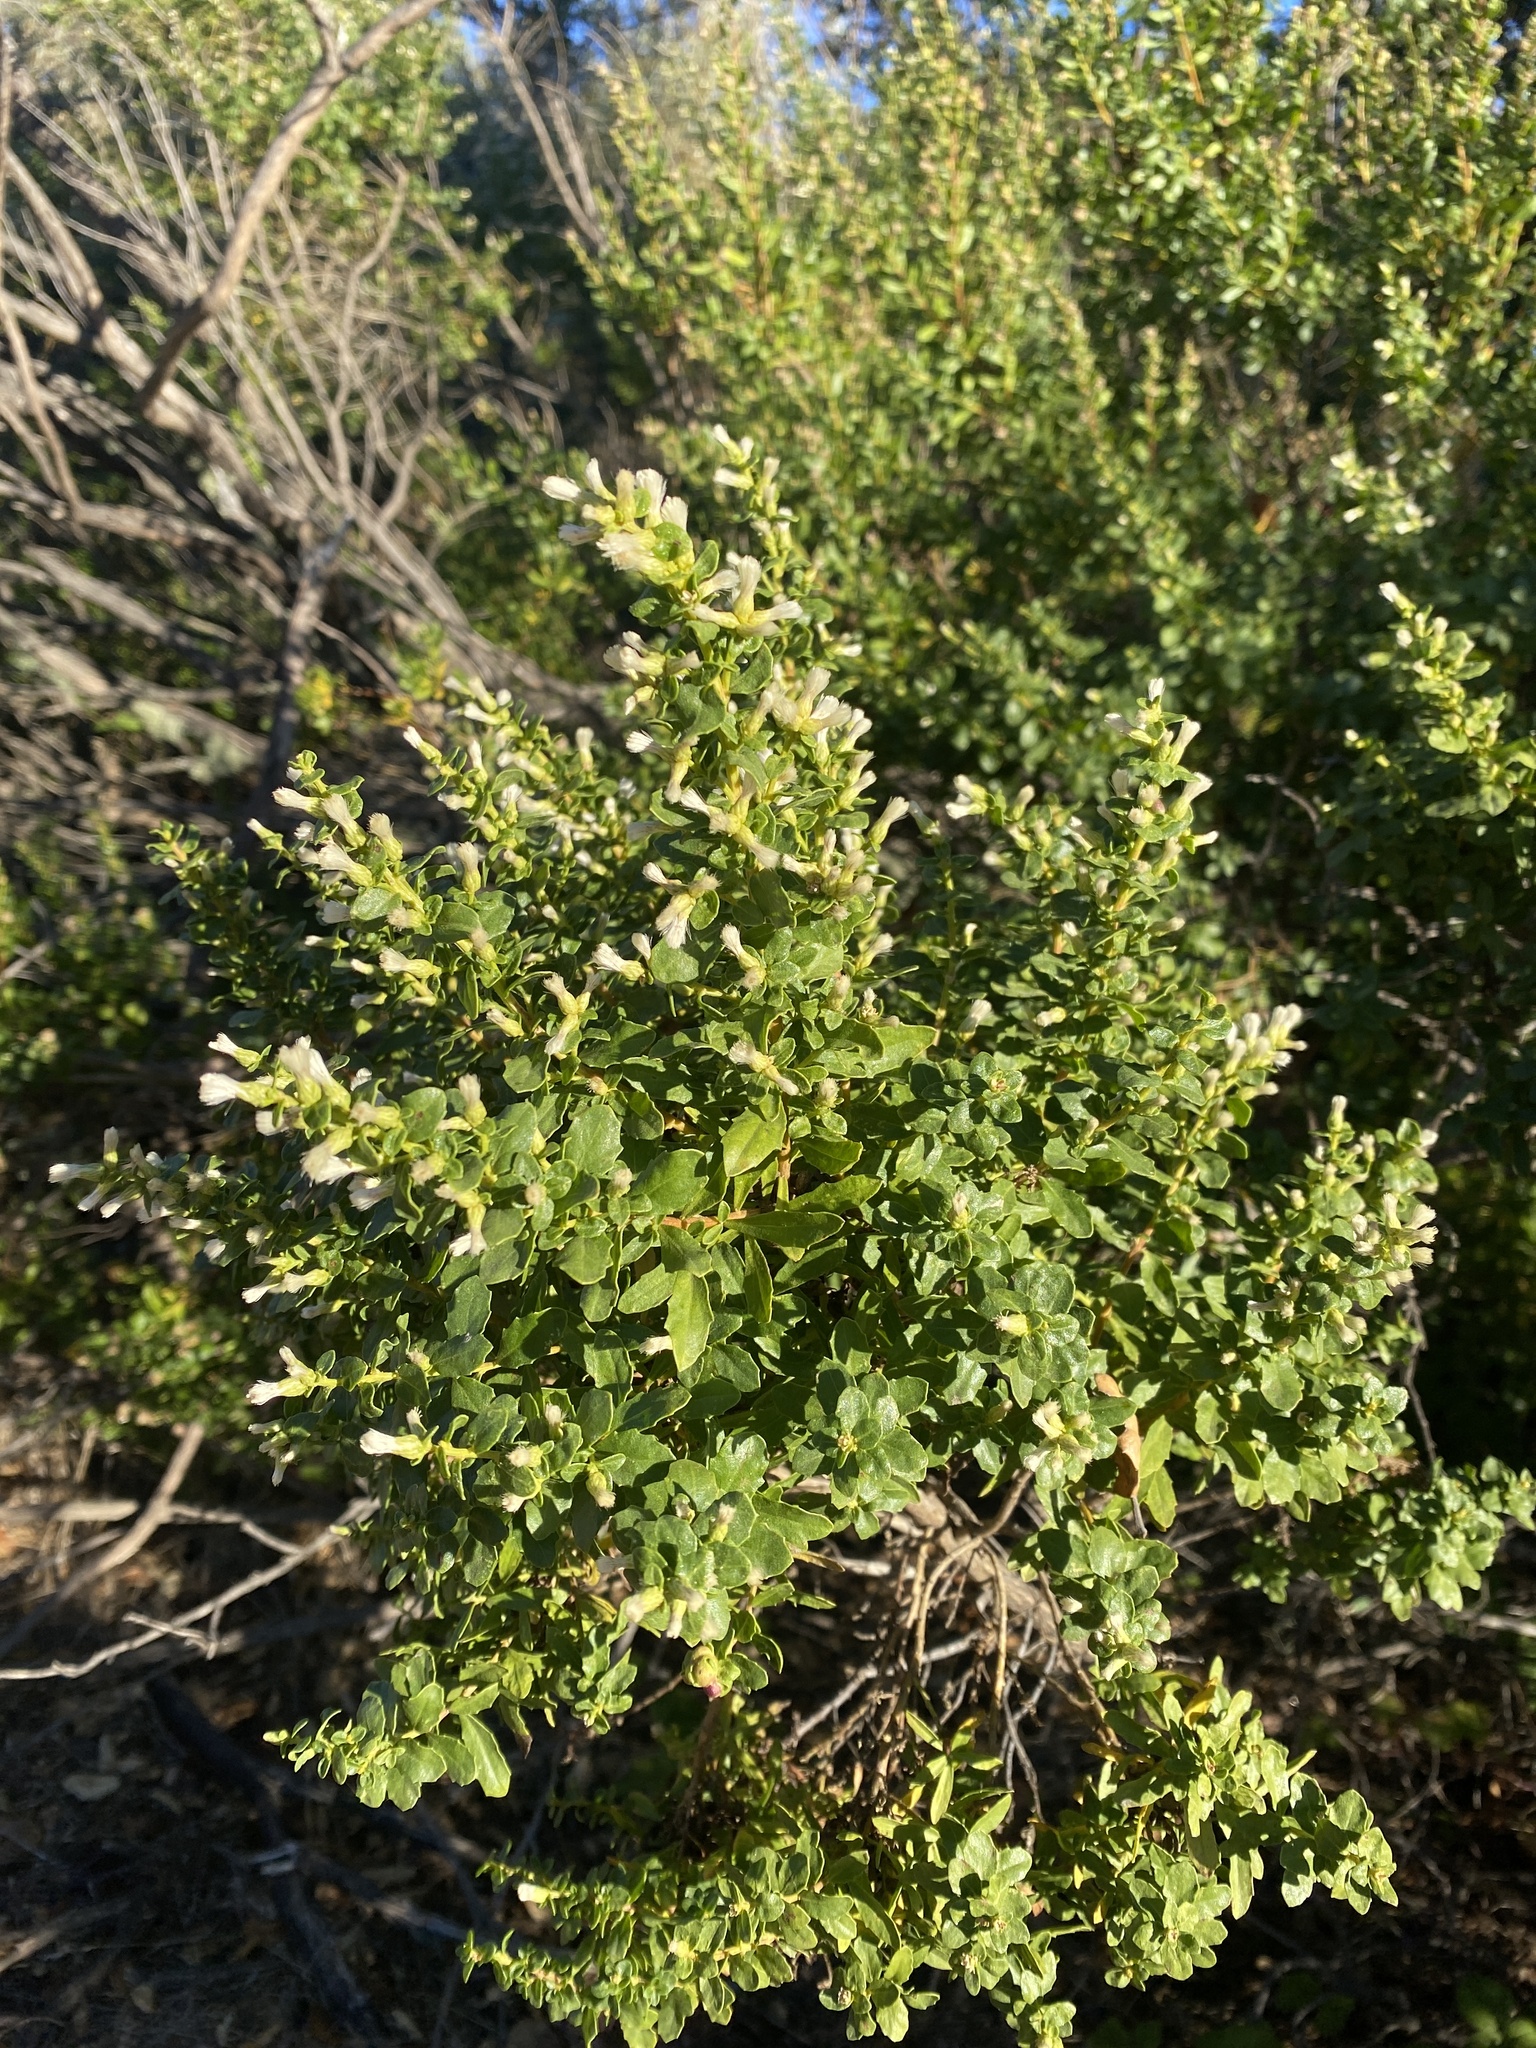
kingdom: Plantae
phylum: Tracheophyta
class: Magnoliopsida
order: Asterales
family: Asteraceae
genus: Baccharis
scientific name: Baccharis pilularis
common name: Coyotebrush
